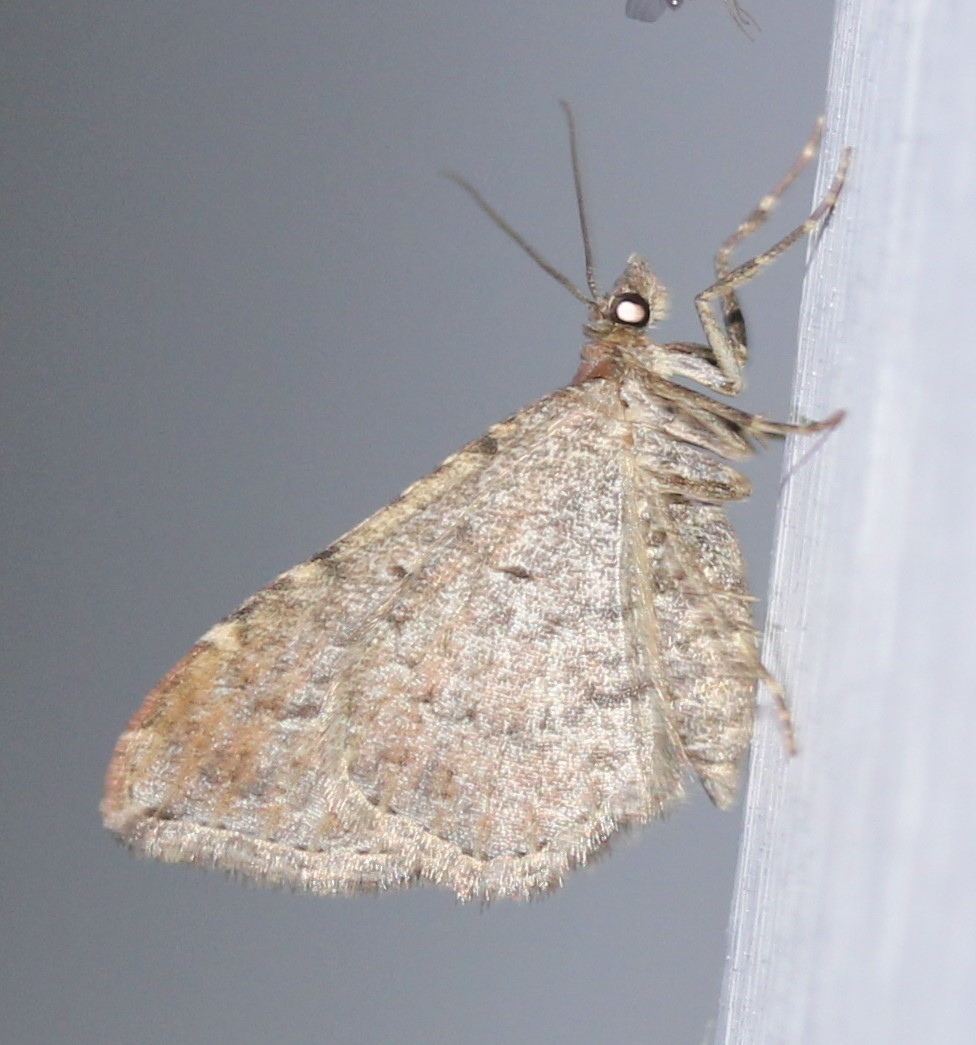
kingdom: Animalia
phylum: Arthropoda
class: Insecta
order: Lepidoptera
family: Geometridae
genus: Orthonama
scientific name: Orthonama obstipata
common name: The gem
